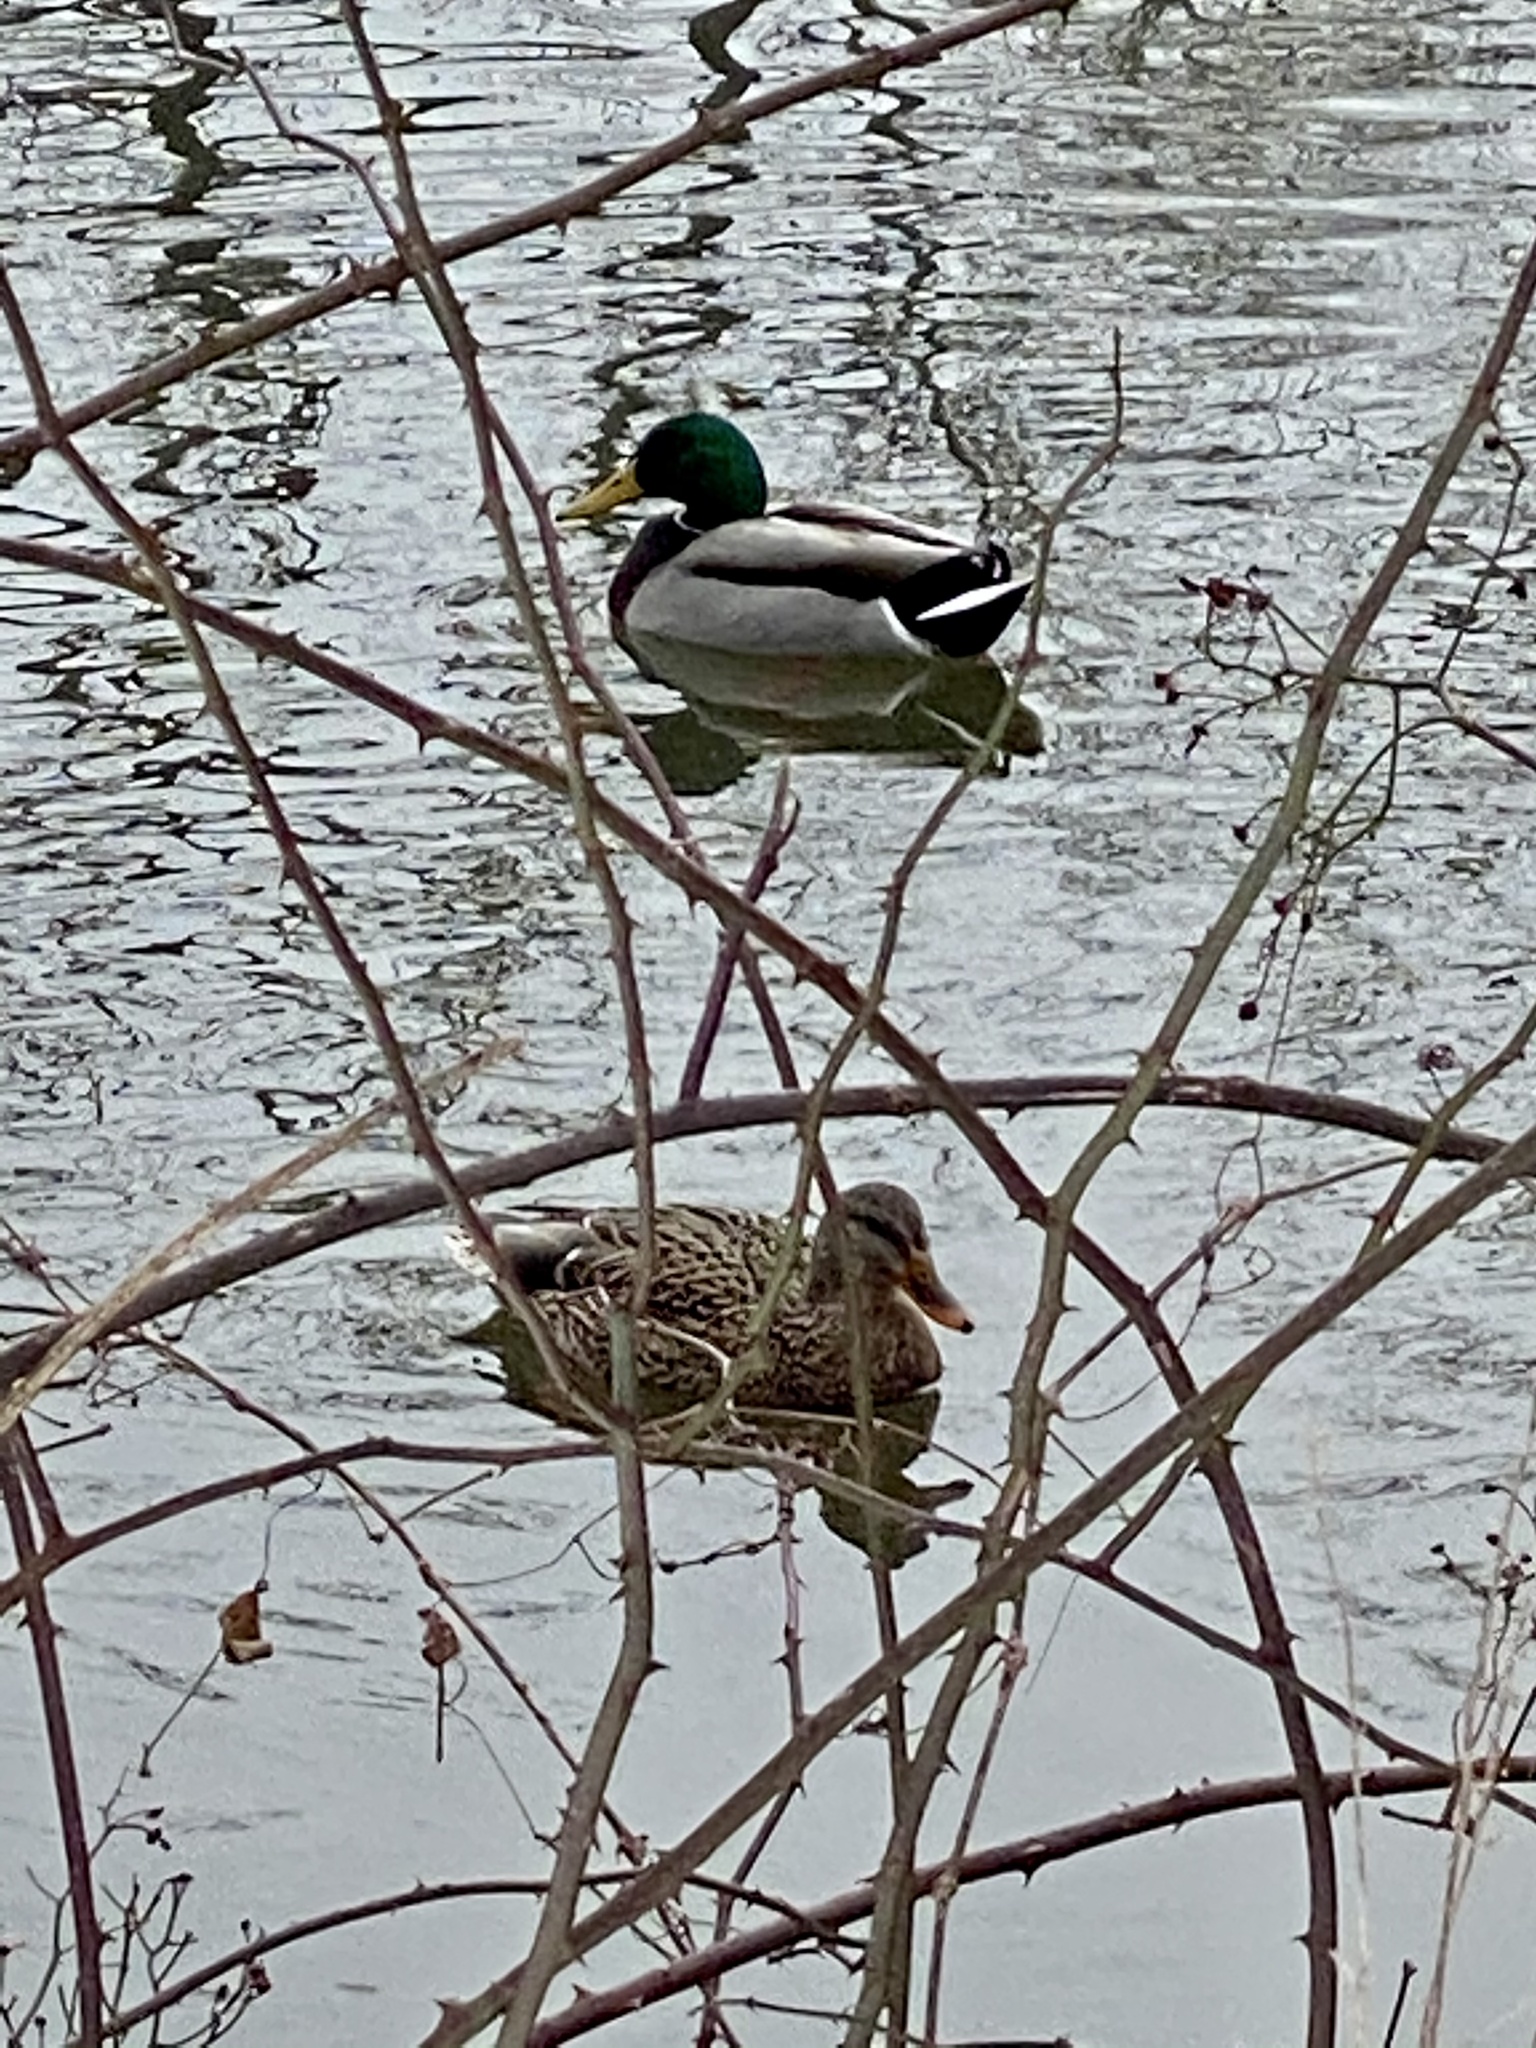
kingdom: Animalia
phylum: Chordata
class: Aves
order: Anseriformes
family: Anatidae
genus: Anas
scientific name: Anas platyrhynchos
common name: Mallard
